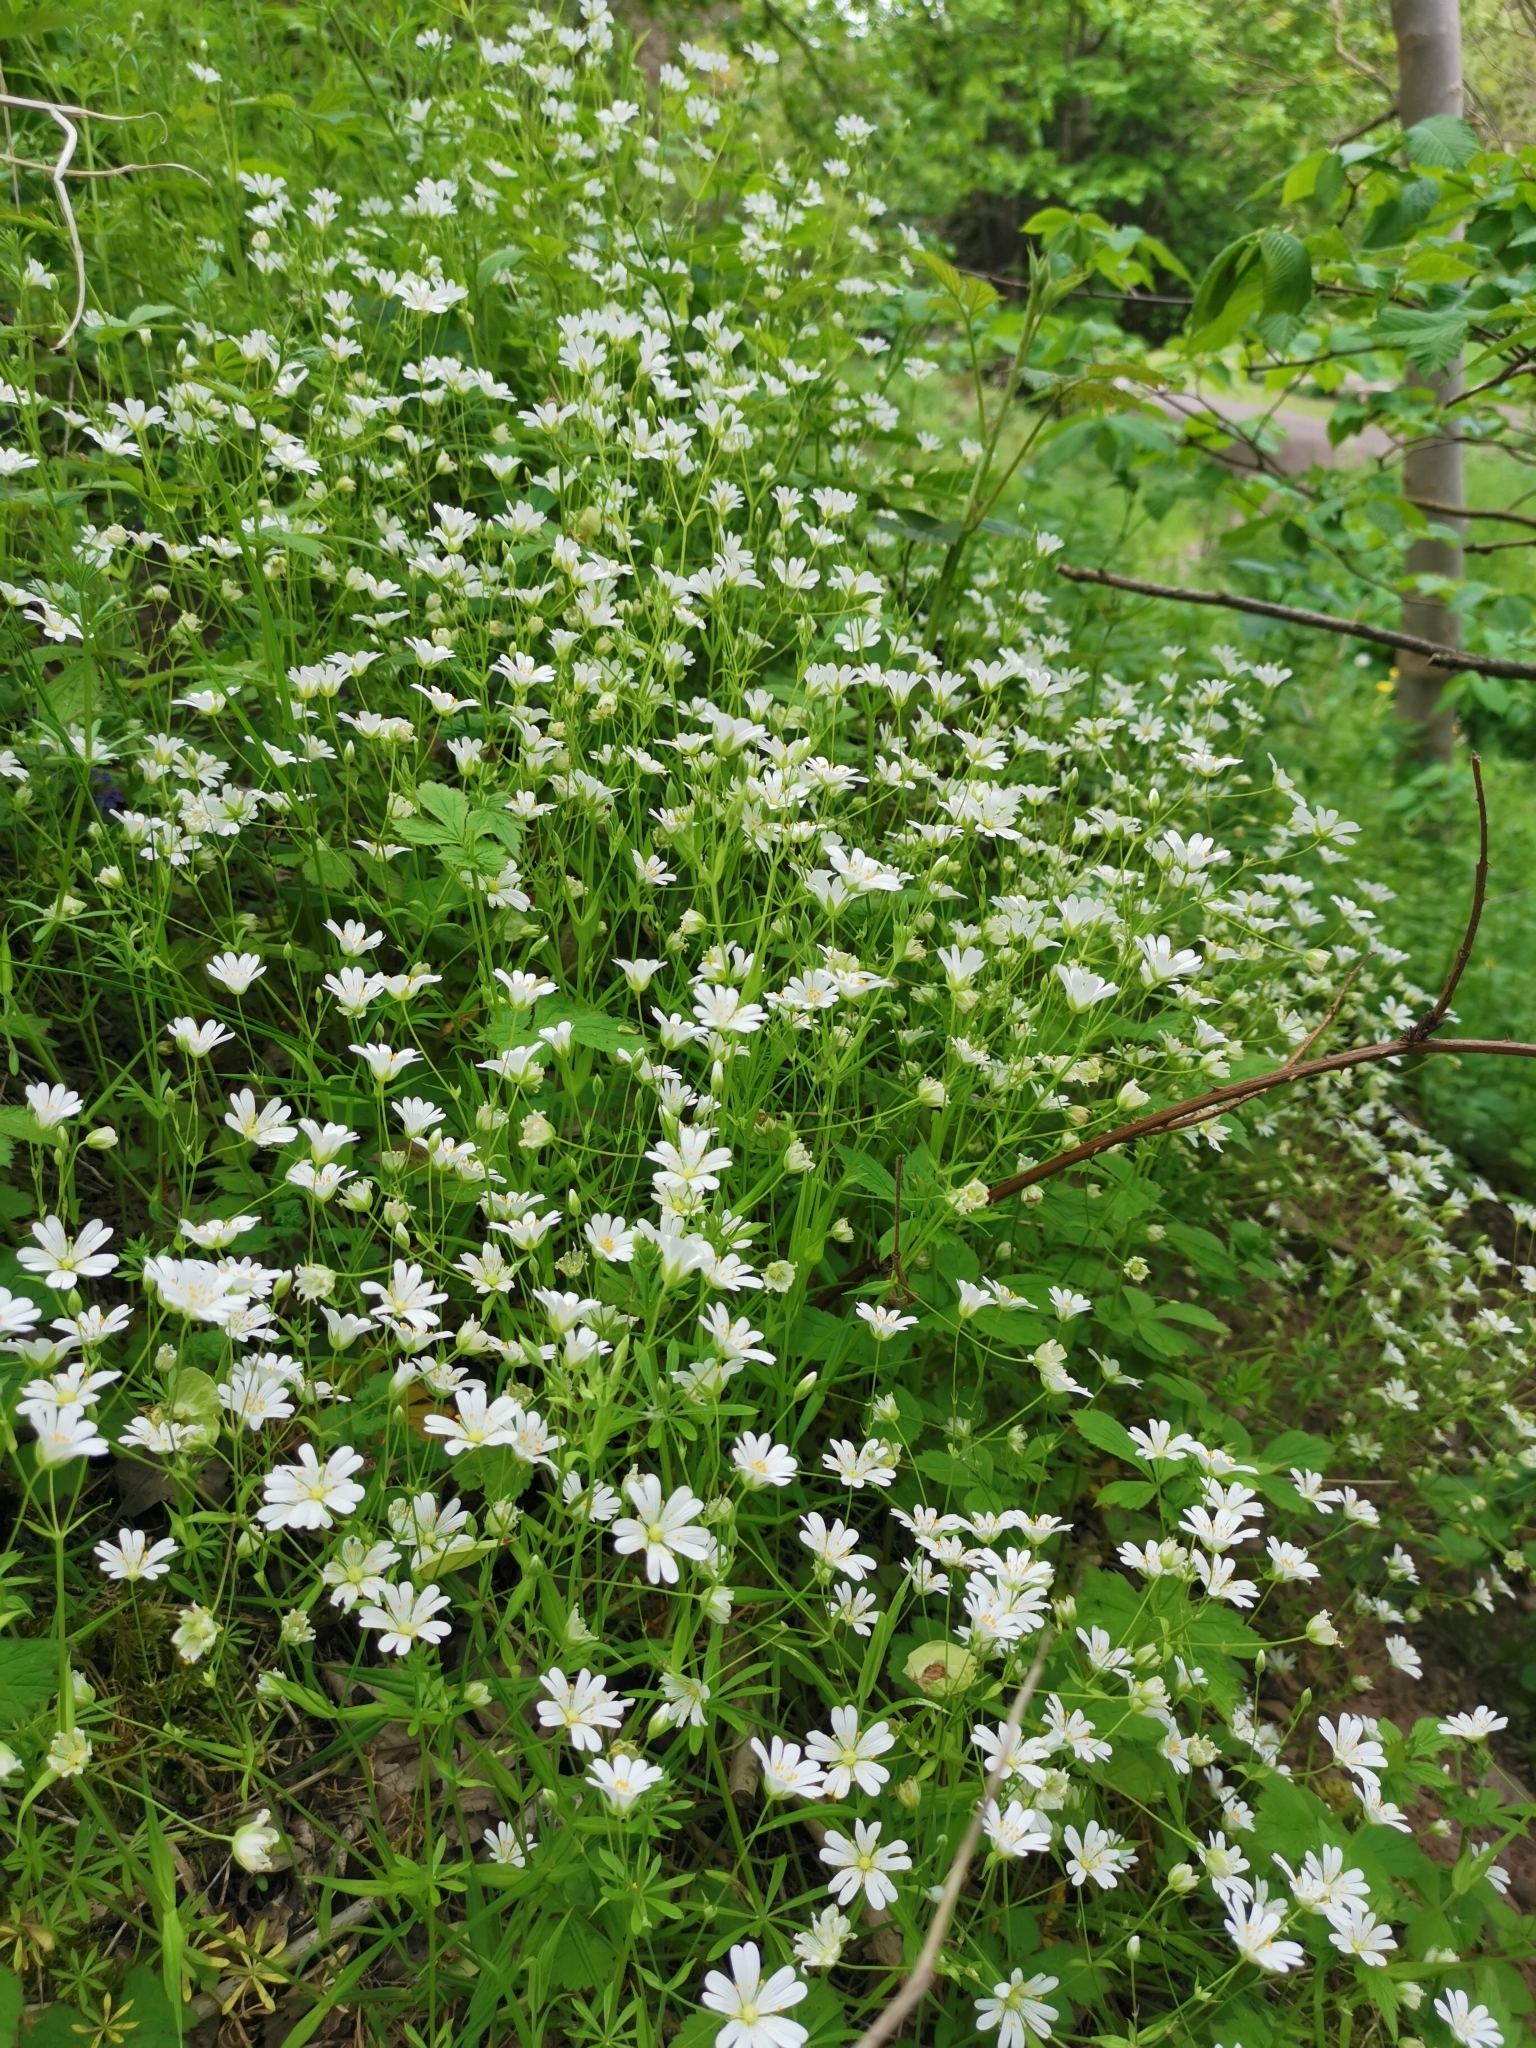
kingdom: Plantae
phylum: Tracheophyta
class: Magnoliopsida
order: Caryophyllales
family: Caryophyllaceae
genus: Rabelera
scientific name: Rabelera holostea
